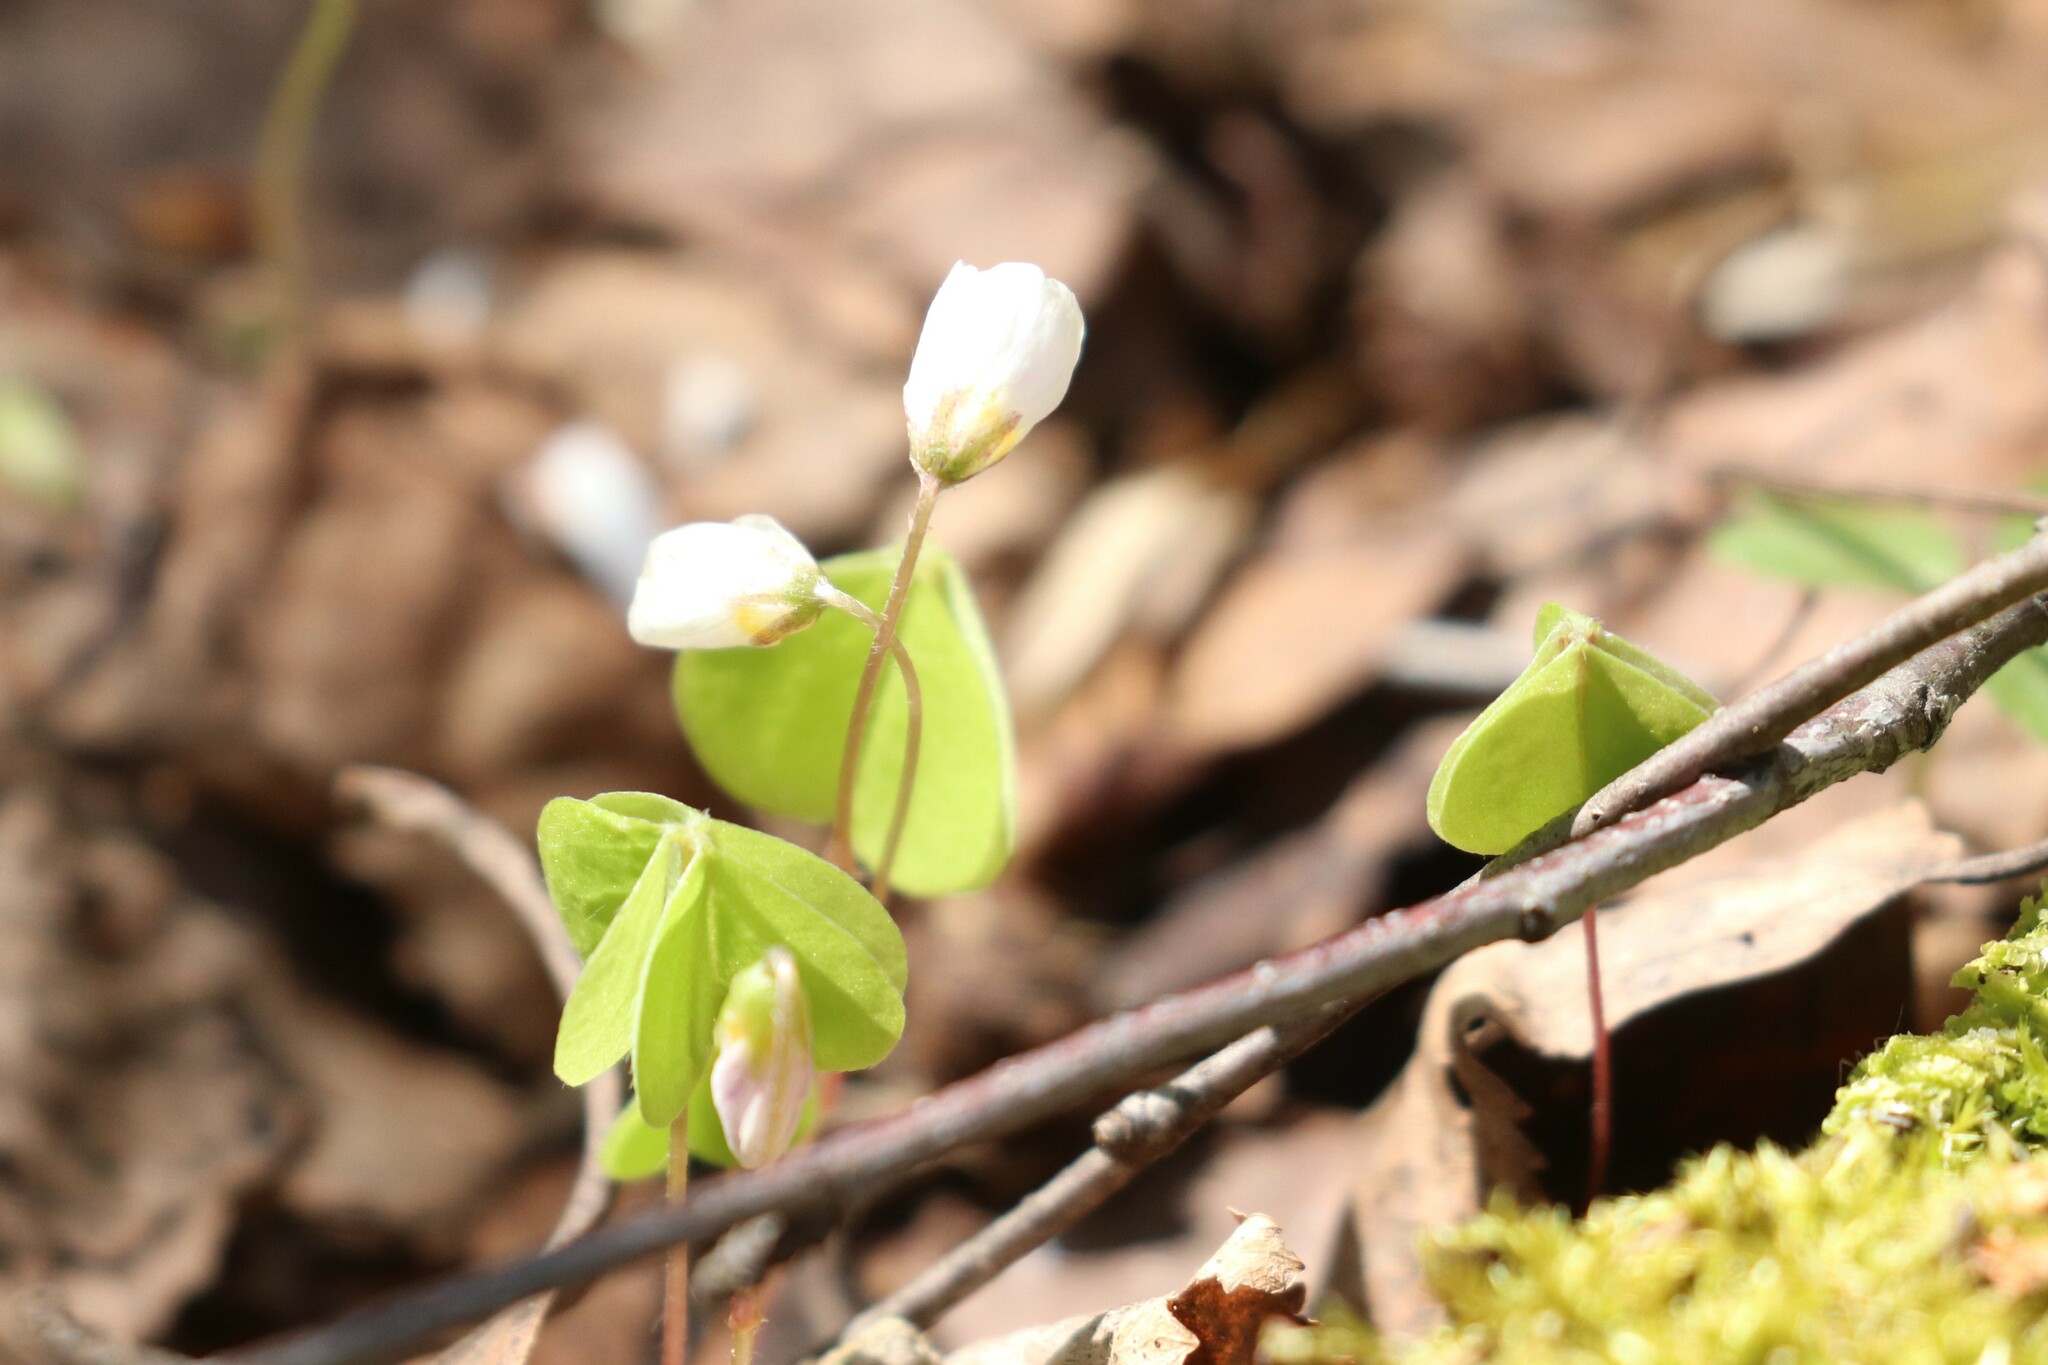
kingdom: Plantae
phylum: Tracheophyta
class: Magnoliopsida
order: Oxalidales
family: Oxalidaceae
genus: Oxalis
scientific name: Oxalis acetosella
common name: Wood-sorrel
